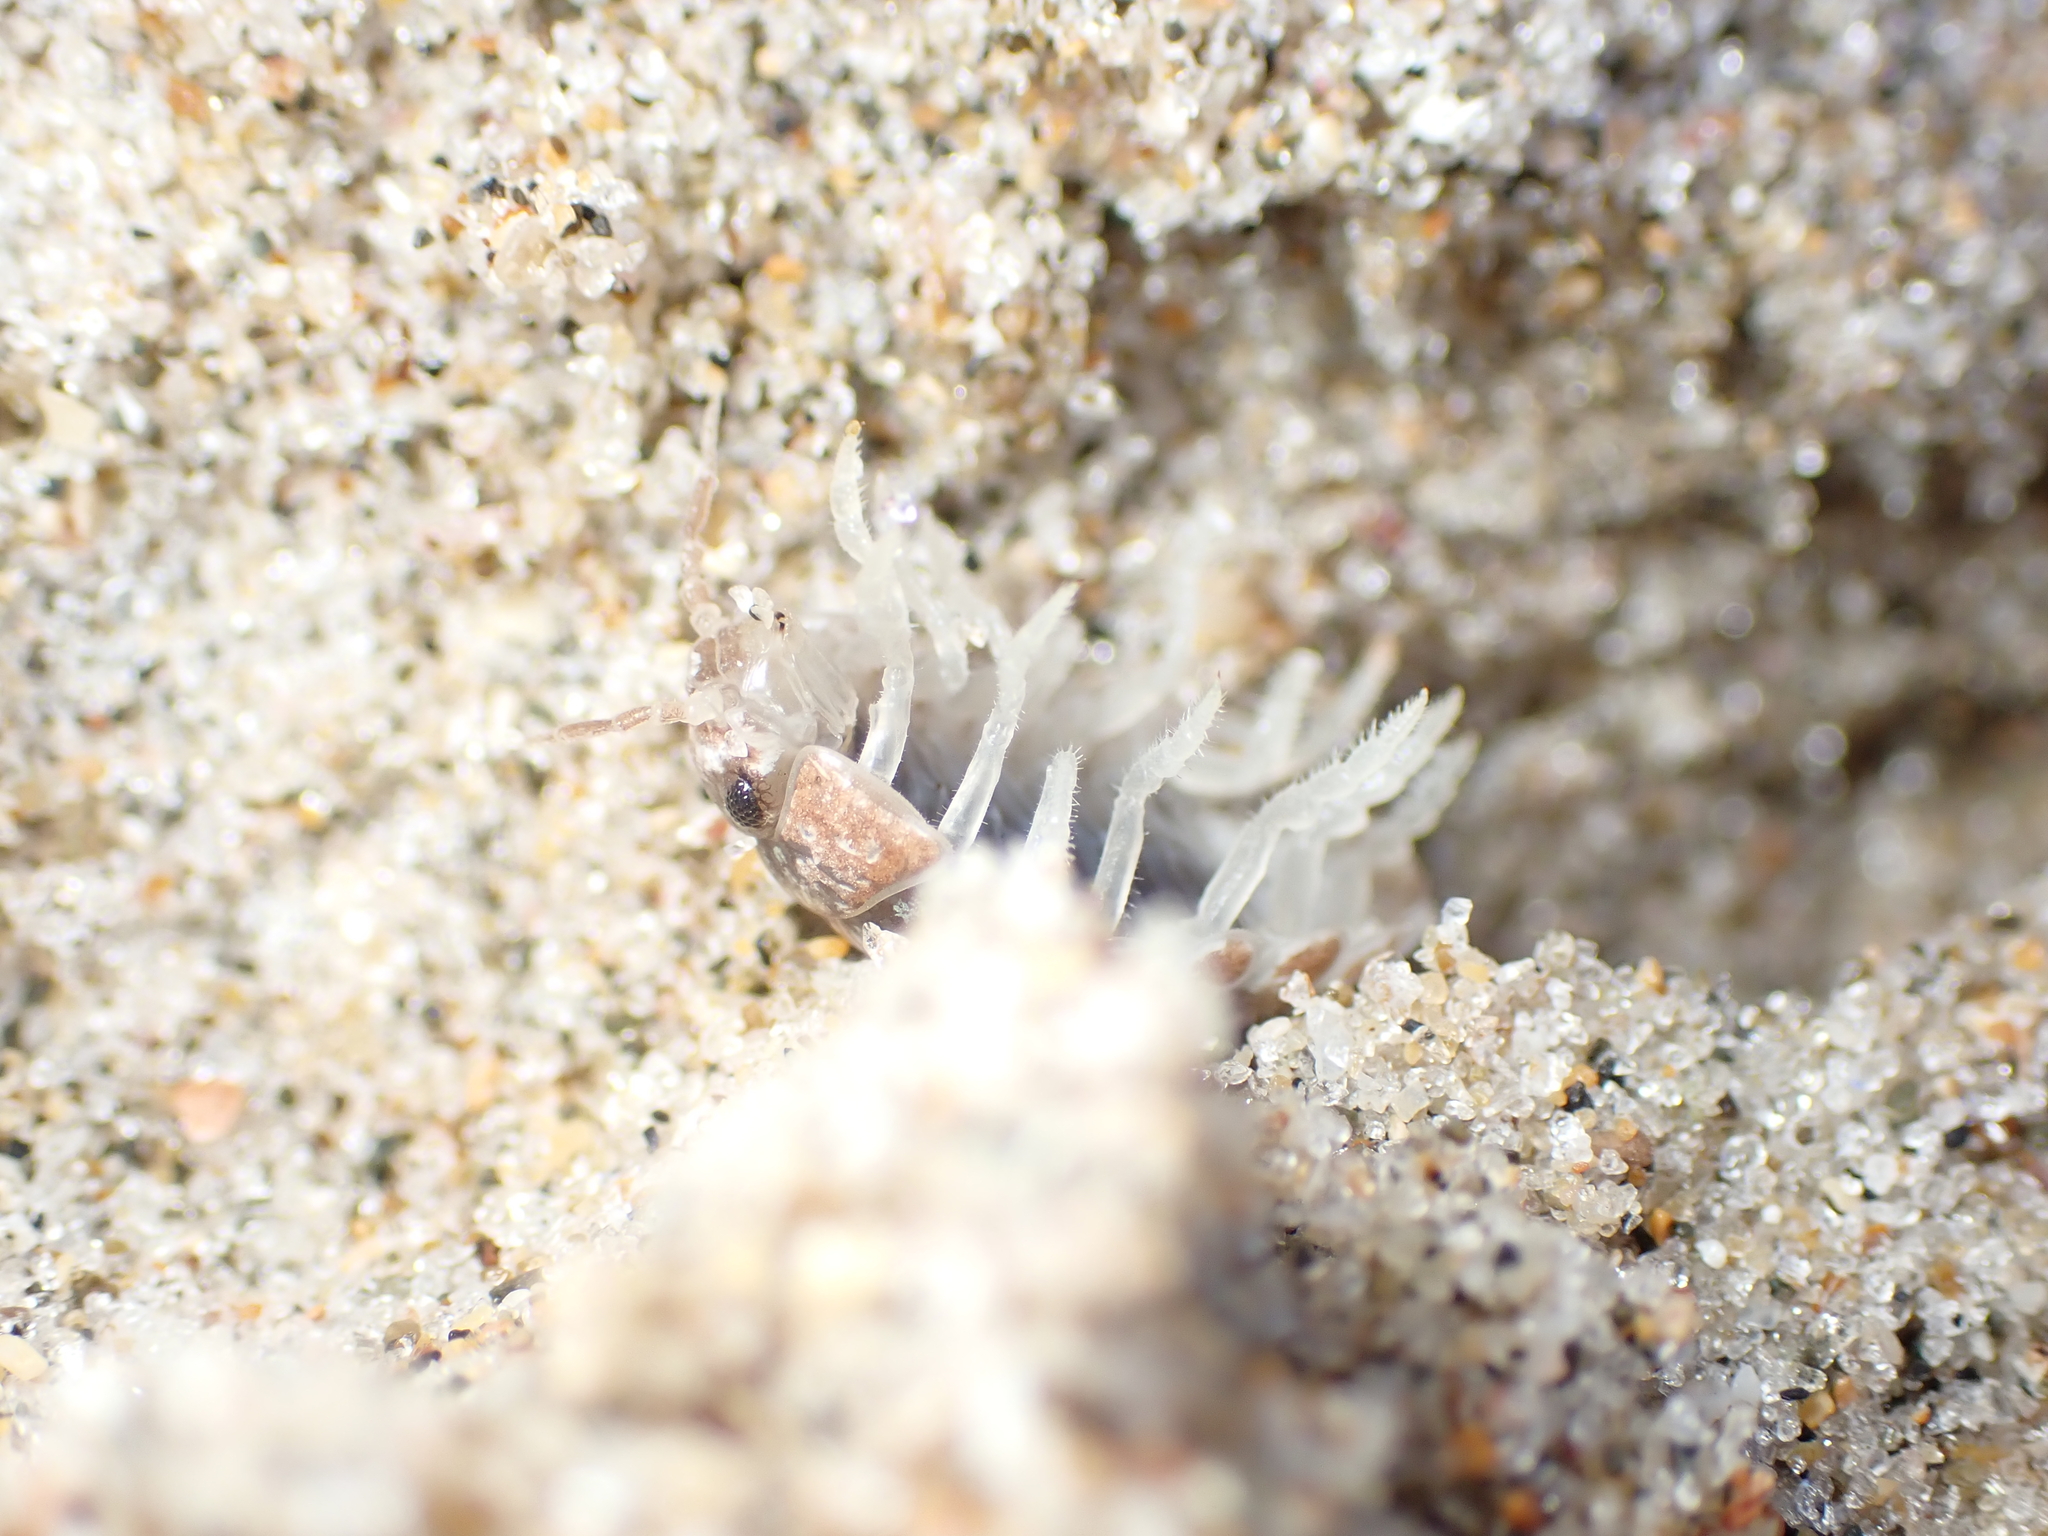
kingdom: Animalia
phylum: Arthropoda
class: Malacostraca
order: Isopoda
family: Tylidae
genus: Tylos
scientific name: Tylos neozelanicus
